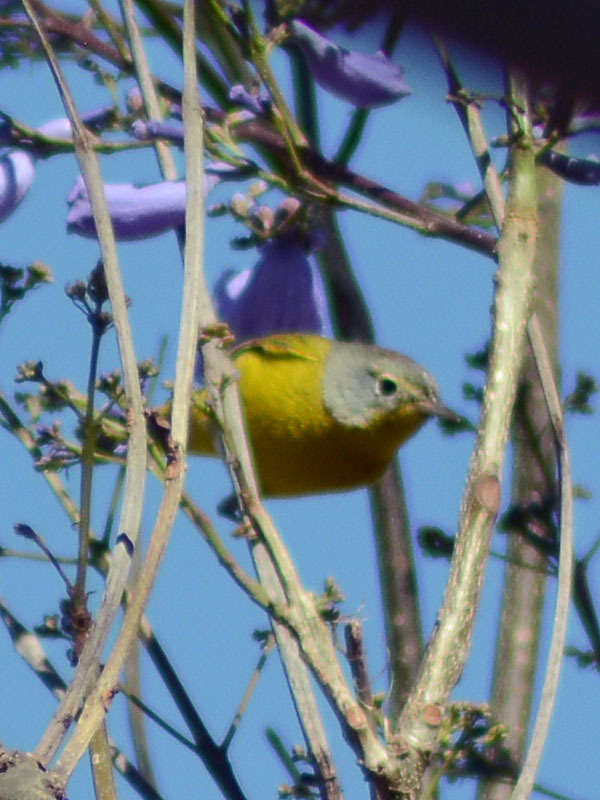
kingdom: Animalia
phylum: Chordata
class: Aves
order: Passeriformes
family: Parulidae
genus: Leiothlypis
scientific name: Leiothlypis ruficapilla
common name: Nashville warbler
